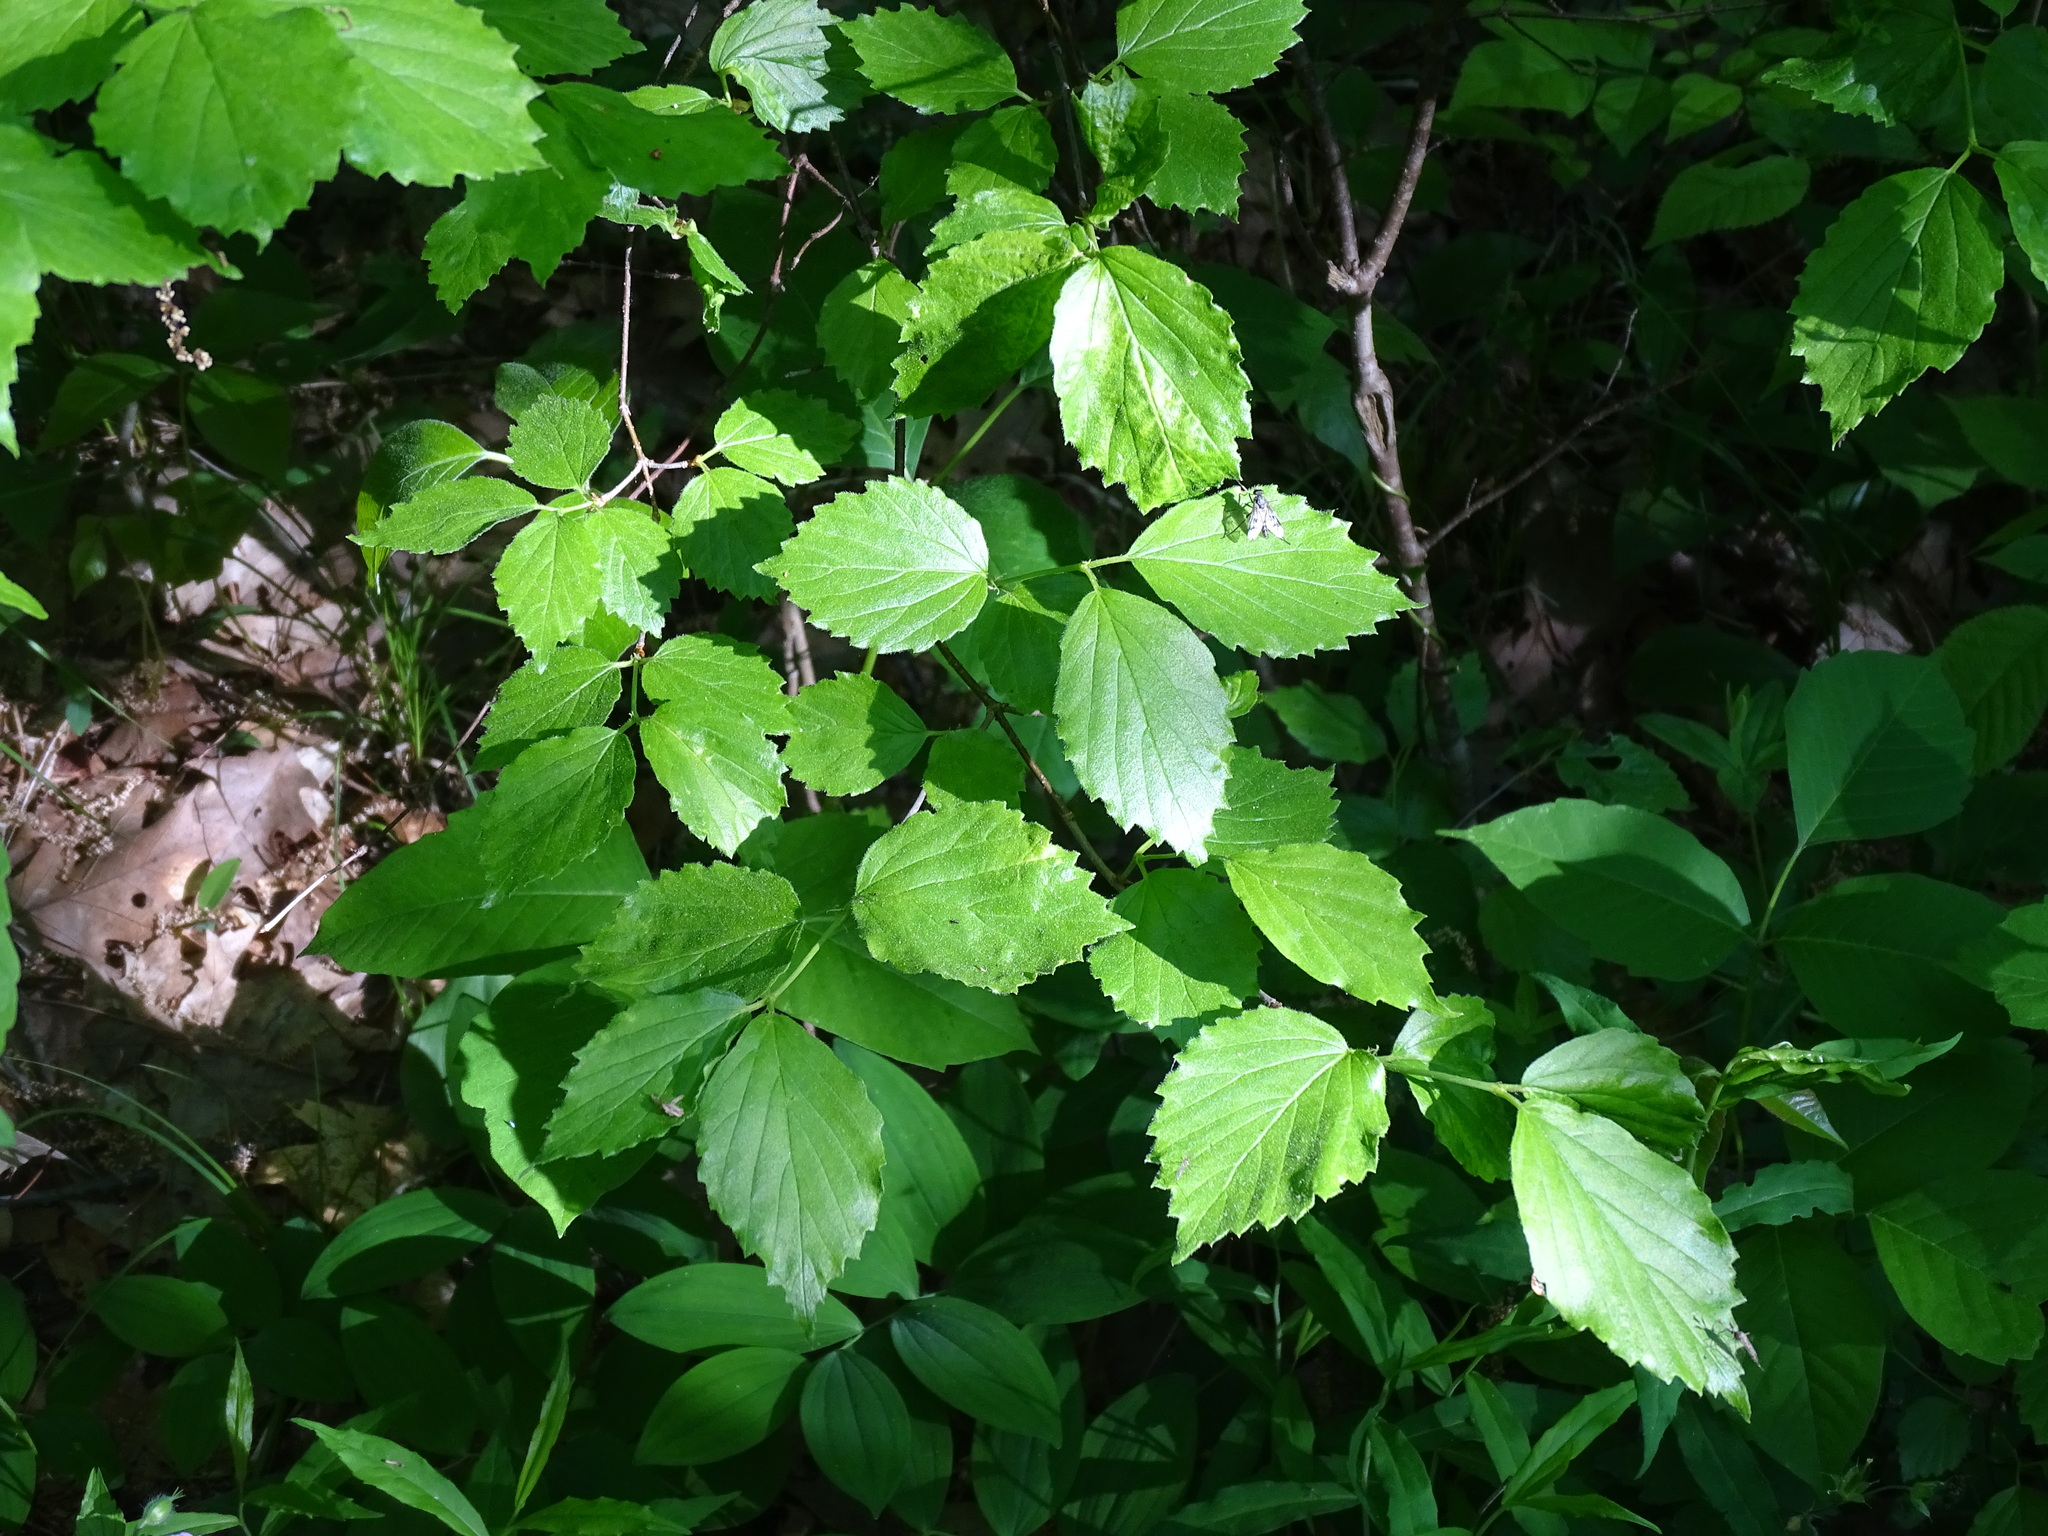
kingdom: Plantae
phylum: Tracheophyta
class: Magnoliopsida
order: Dipsacales
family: Viburnaceae
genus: Viburnum
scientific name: Viburnum rafinesqueanum
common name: Downy arrow-wood
